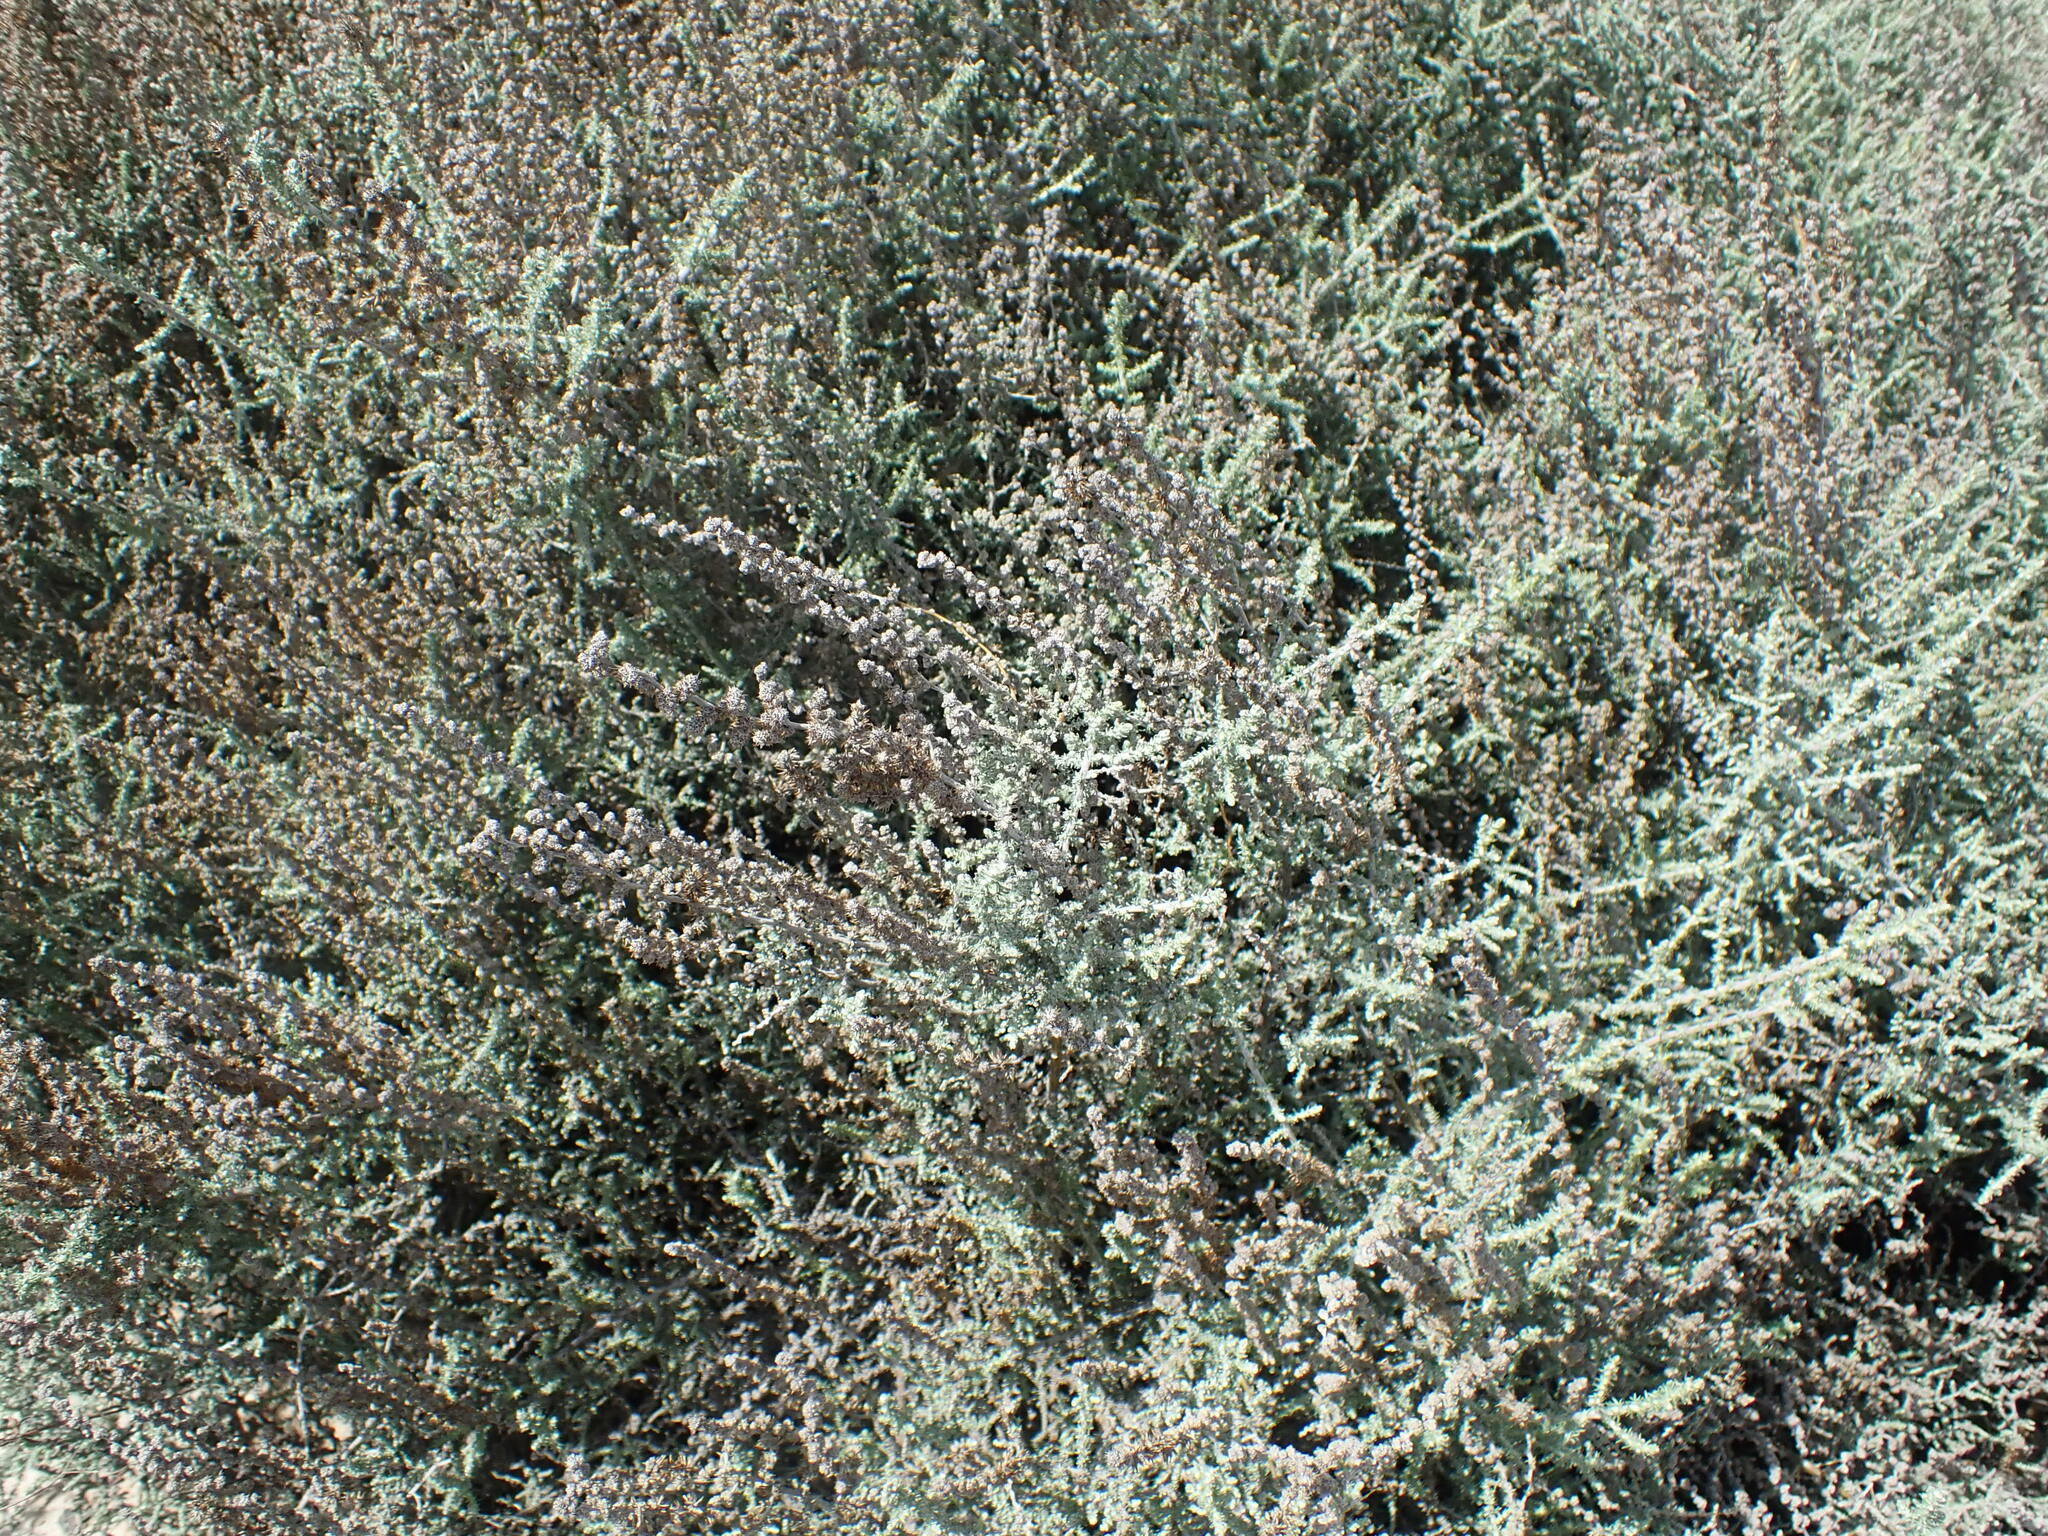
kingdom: Plantae
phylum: Tracheophyta
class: Magnoliopsida
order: Asterales
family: Asteraceae
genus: Seriphium
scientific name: Seriphium plumosum
